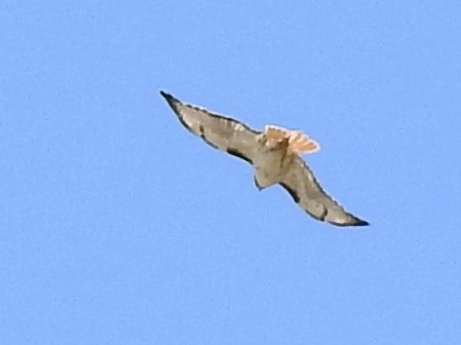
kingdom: Animalia
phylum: Chordata
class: Aves
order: Accipitriformes
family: Accipitridae
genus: Buteo
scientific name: Buteo jamaicensis
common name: Red-tailed hawk
